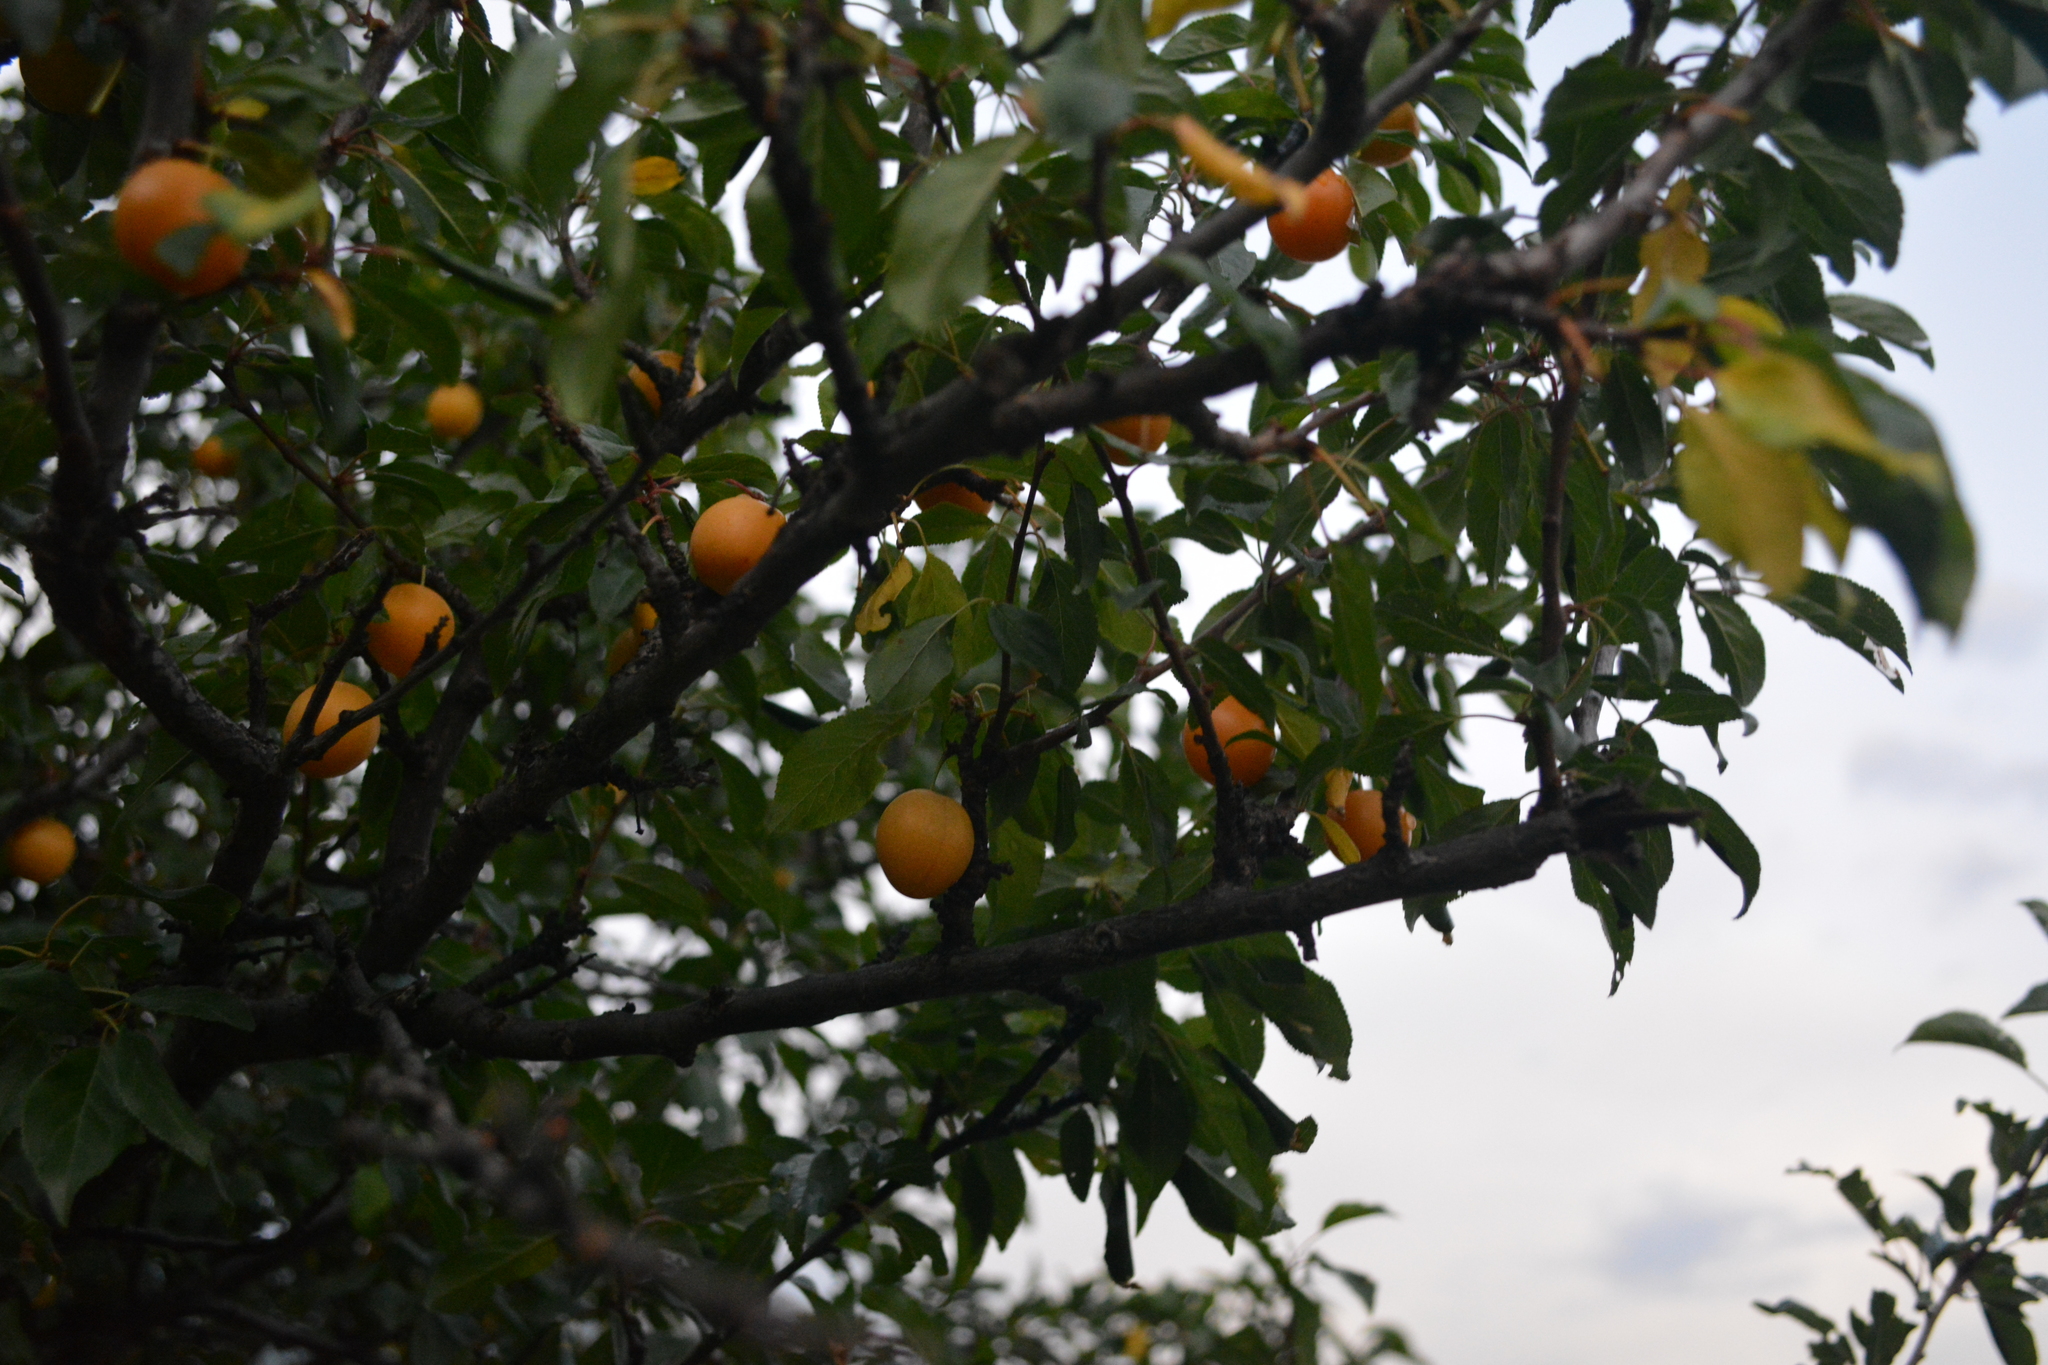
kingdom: Plantae
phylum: Tracheophyta
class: Magnoliopsida
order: Rosales
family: Rosaceae
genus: Prunus
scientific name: Prunus armeniaca
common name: Apricot
